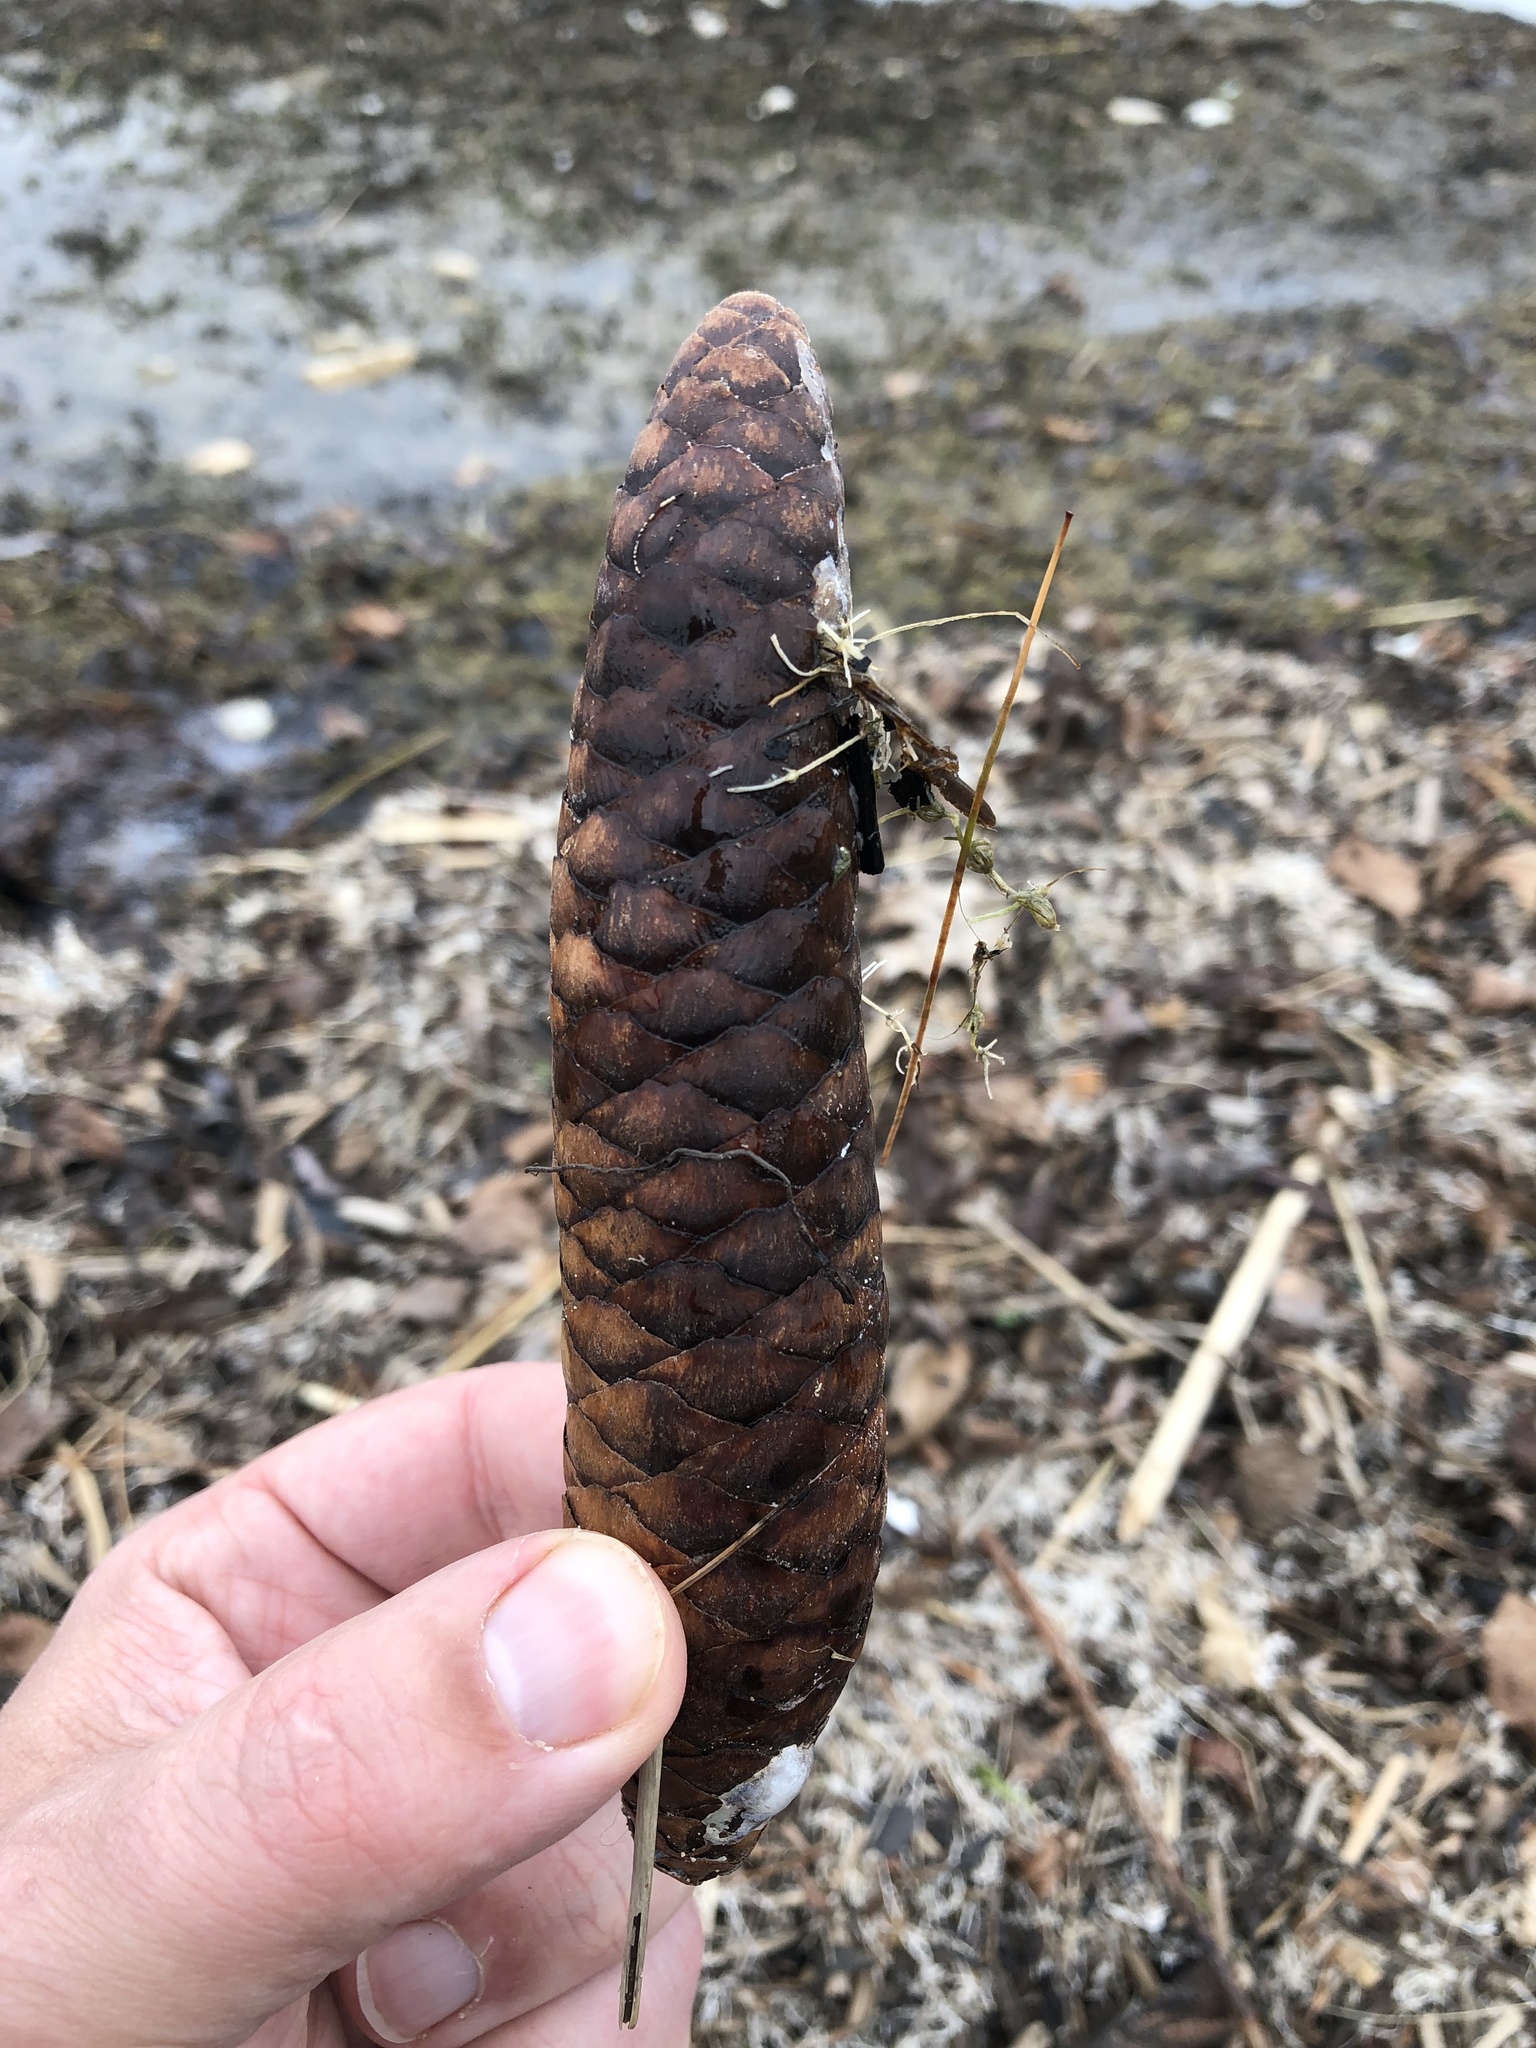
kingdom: Plantae
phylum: Tracheophyta
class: Pinopsida
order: Pinales
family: Pinaceae
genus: Picea
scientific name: Picea abies
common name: Norway spruce
